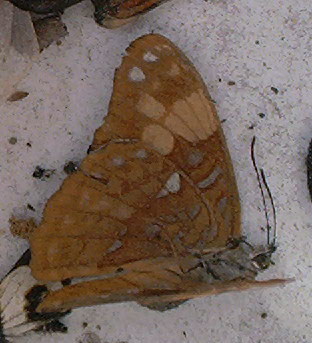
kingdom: Animalia
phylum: Arthropoda
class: Insecta
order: Lepidoptera
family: Nymphalidae
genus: Limenitis
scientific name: Limenitis irmina
